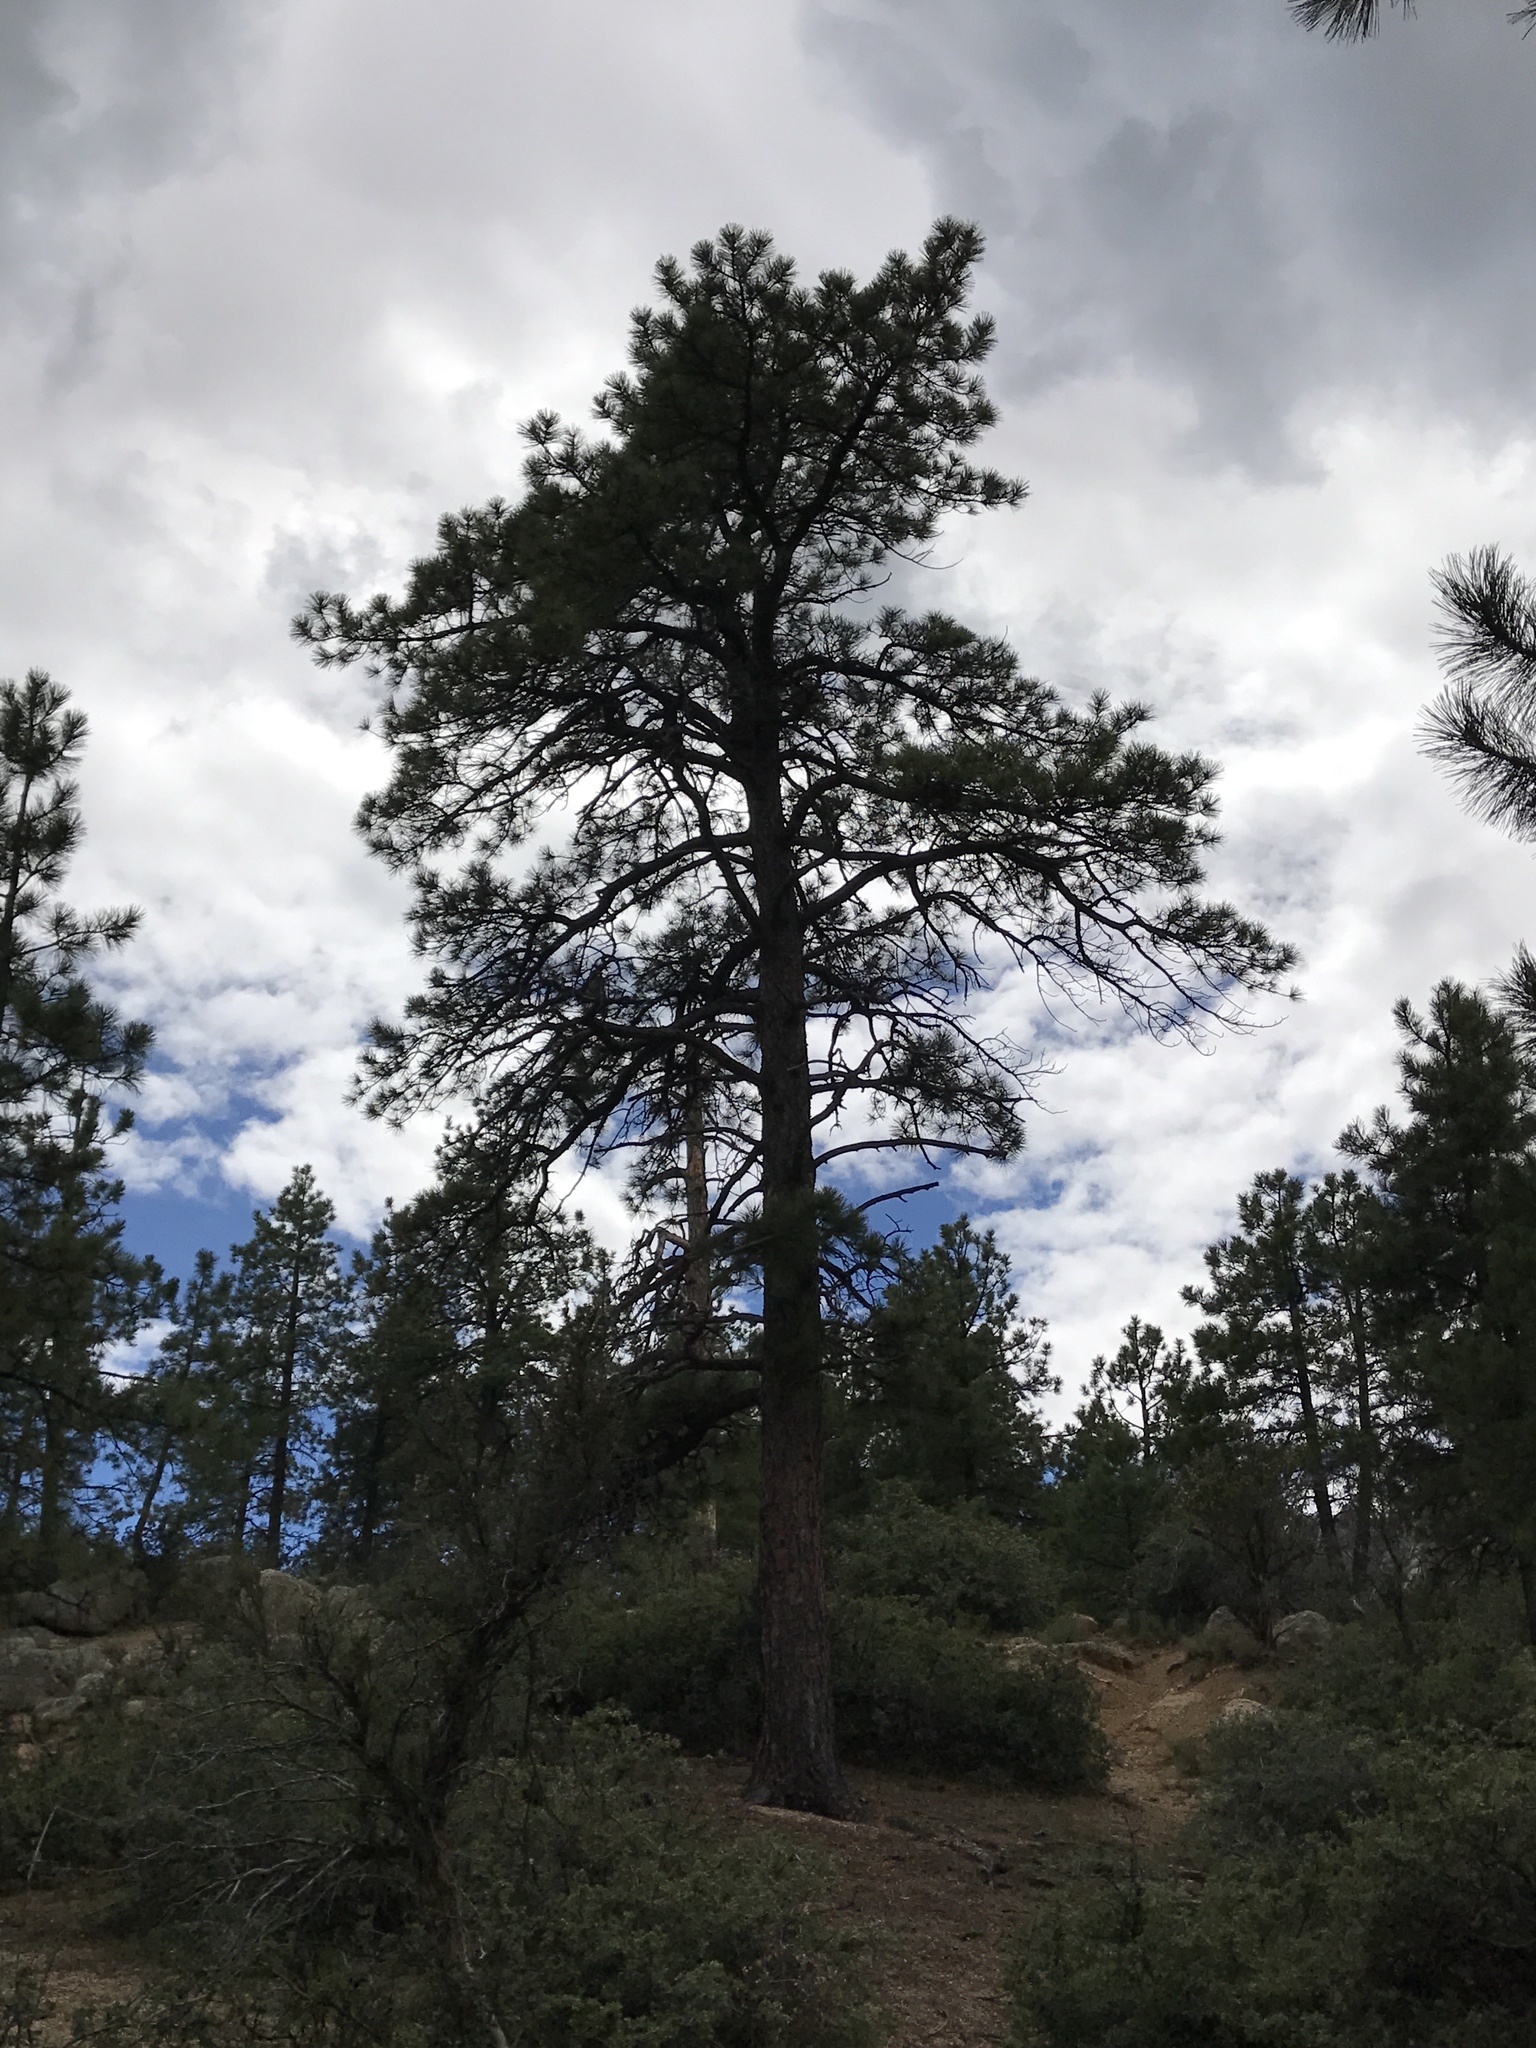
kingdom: Plantae
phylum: Tracheophyta
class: Pinopsida
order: Pinales
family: Pinaceae
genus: Pinus
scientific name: Pinus ponderosa
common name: Western yellow-pine
